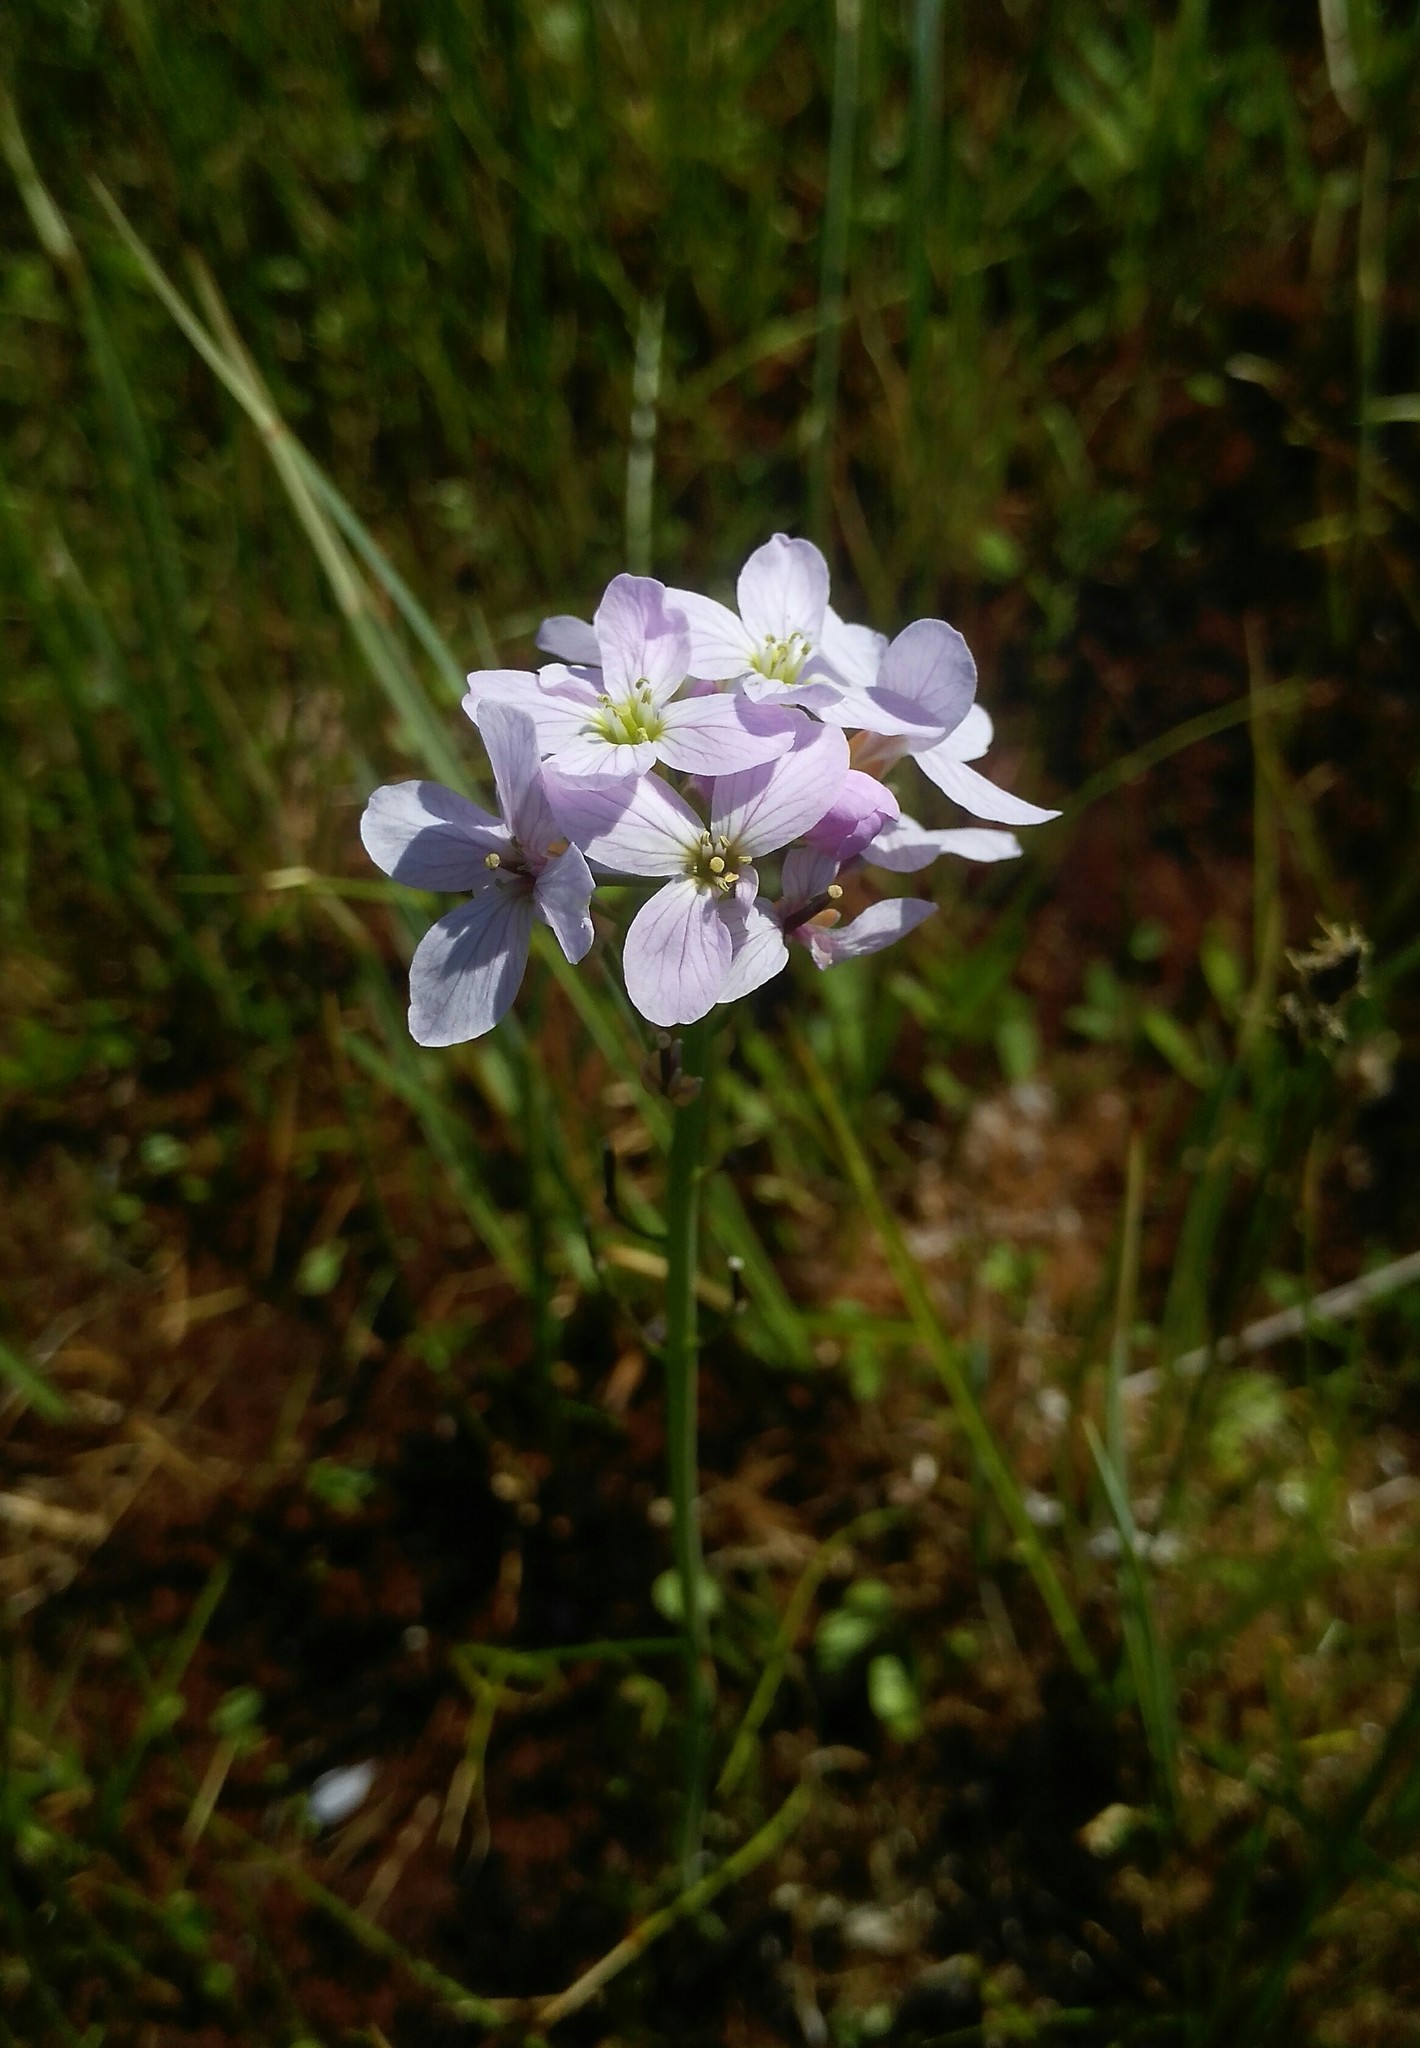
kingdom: Plantae
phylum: Tracheophyta
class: Magnoliopsida
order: Brassicales
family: Brassicaceae
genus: Cardamine
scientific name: Cardamine pratensis
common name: Cuckoo flower
